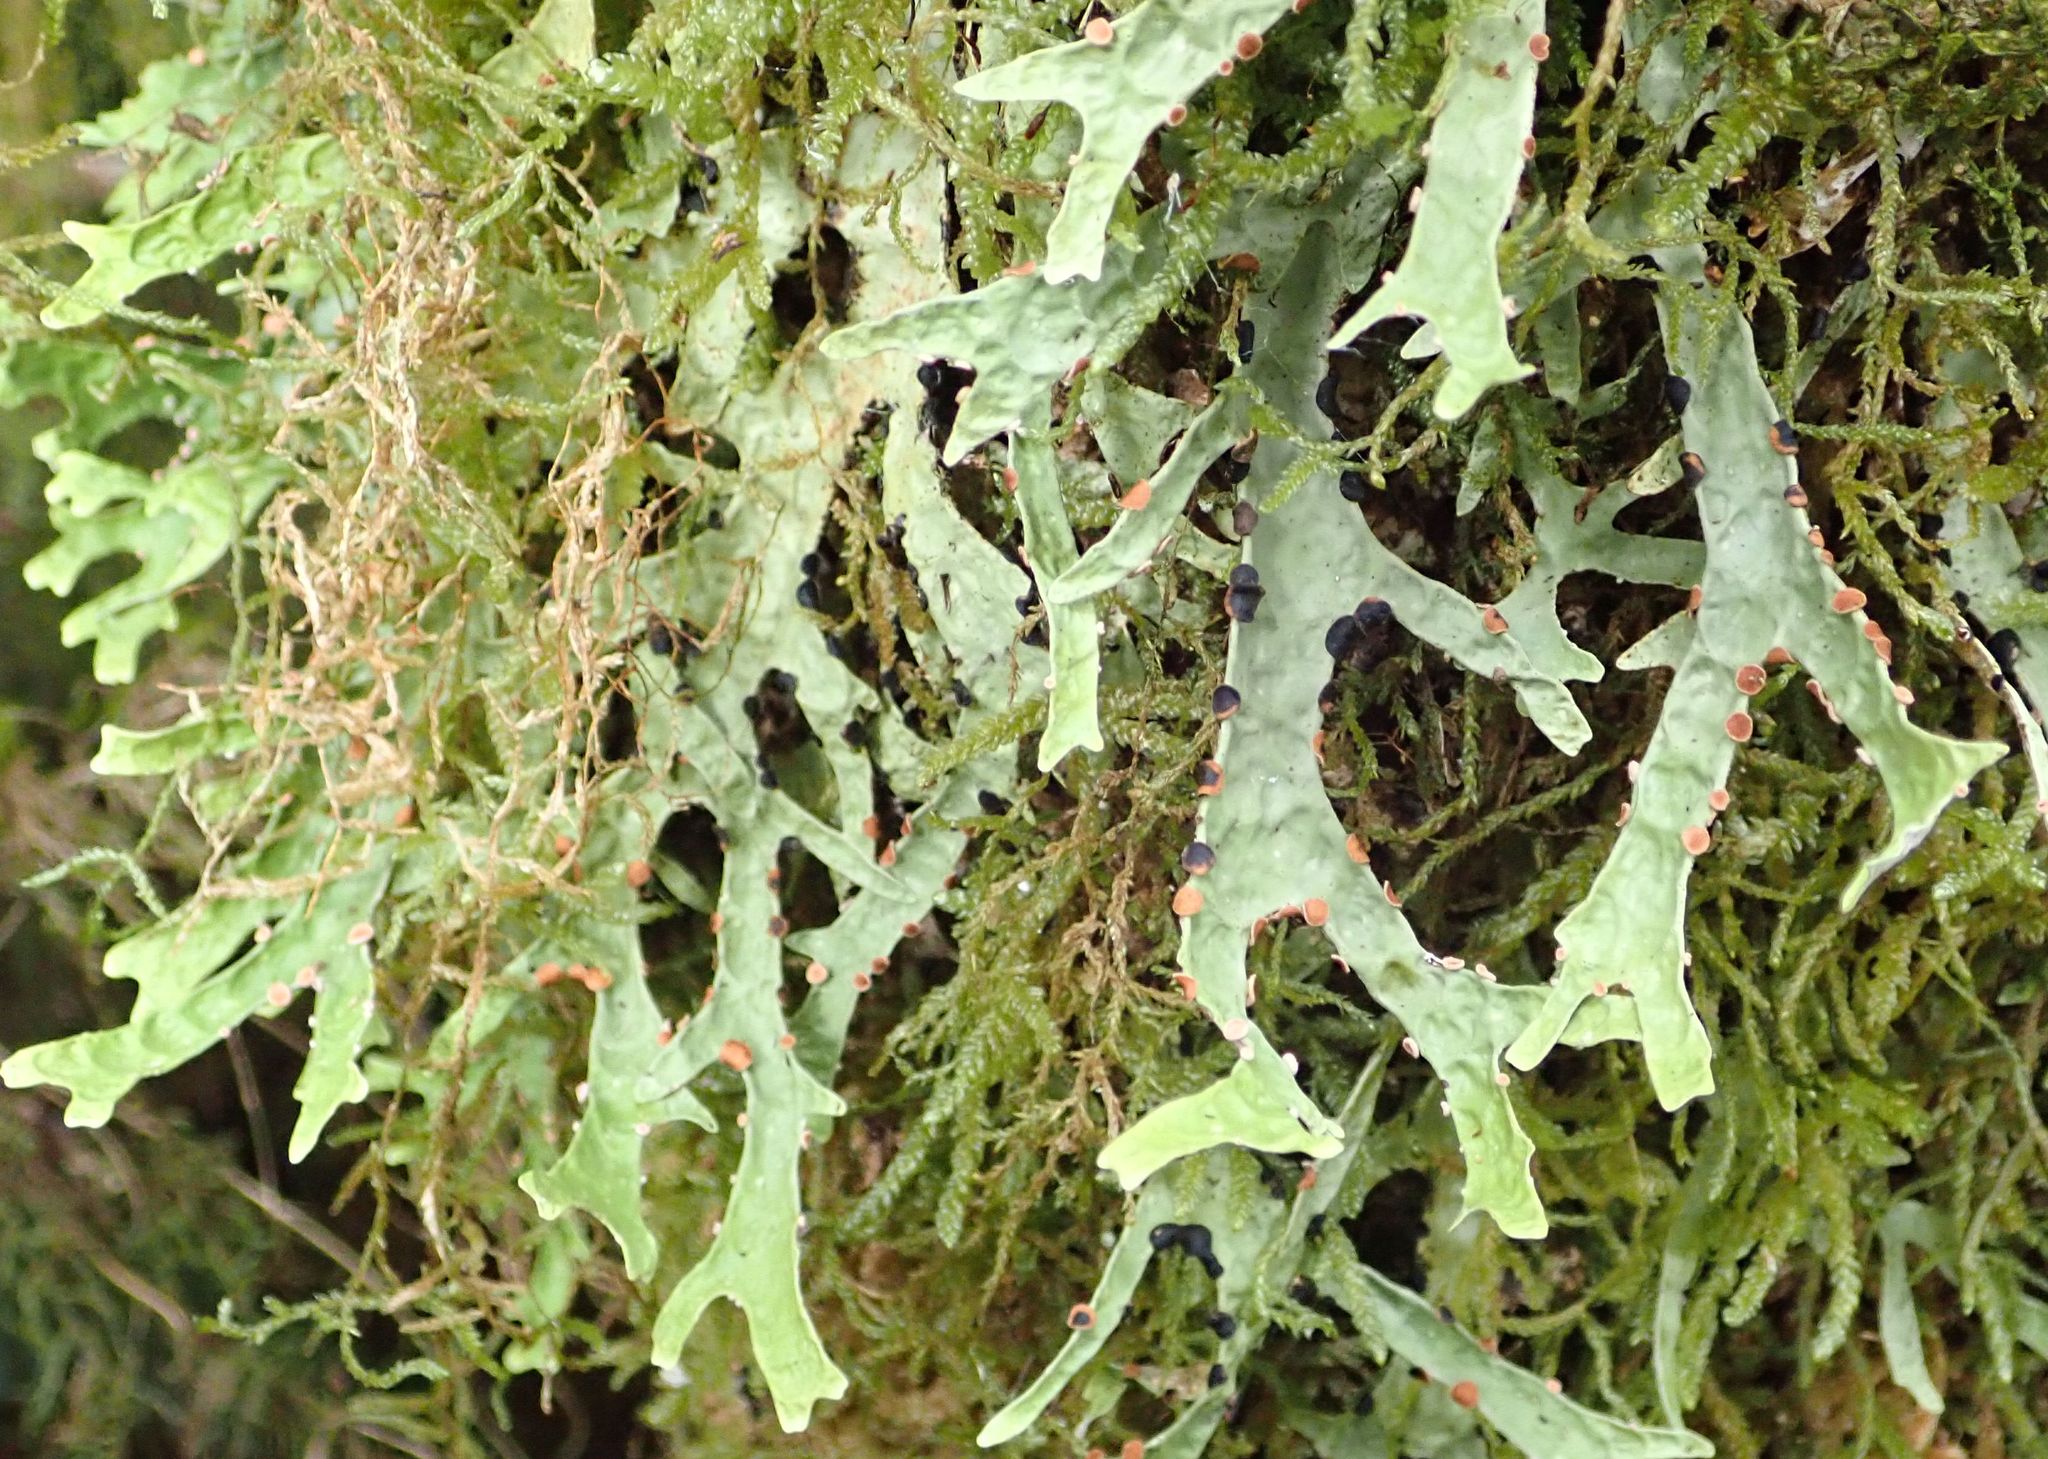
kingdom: Fungi
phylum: Ascomycota
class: Lecanoromycetes
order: Peltigerales
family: Lobariaceae
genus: Pseudocyphellaria
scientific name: Pseudocyphellaria rufovirescens
